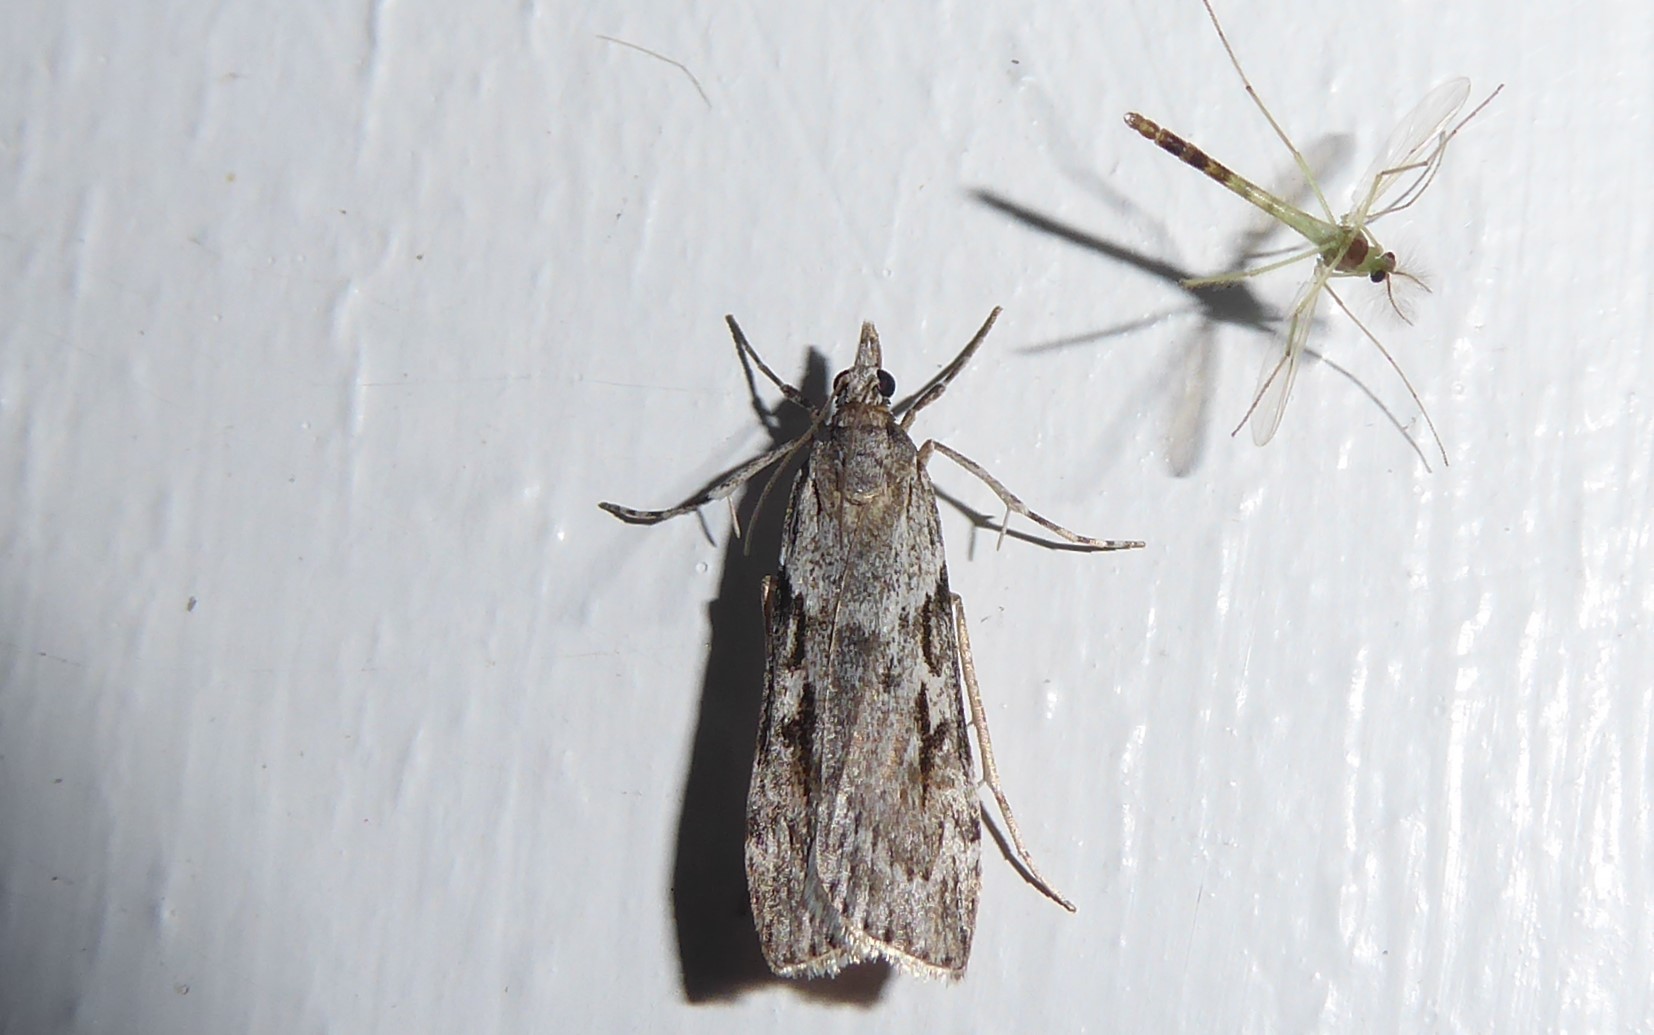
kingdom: Animalia
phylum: Arthropoda
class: Insecta
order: Lepidoptera
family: Crambidae
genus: Scoparia
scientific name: Scoparia halopis
